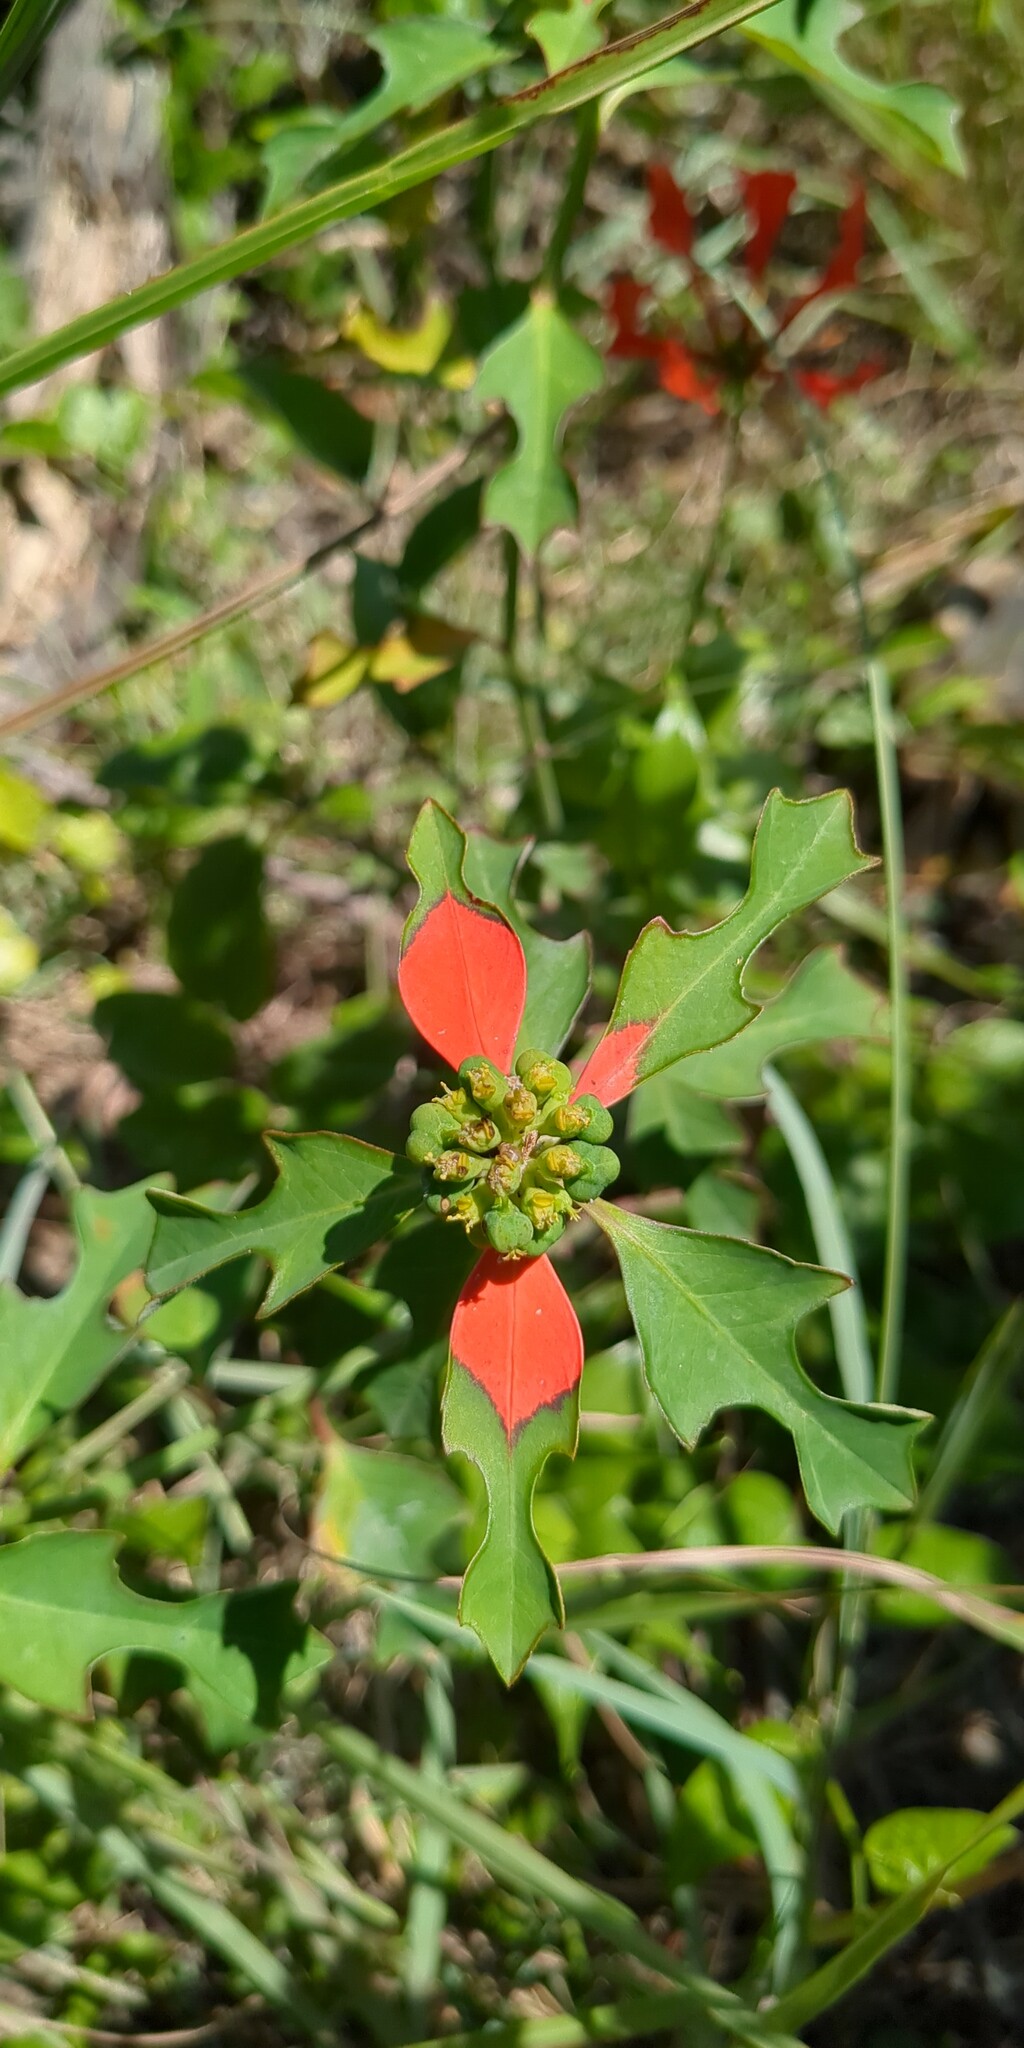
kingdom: Plantae
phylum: Tracheophyta
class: Magnoliopsida
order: Malpighiales
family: Euphorbiaceae
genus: Euphorbia
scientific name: Euphorbia heterophylla
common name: Mexican fireplant
